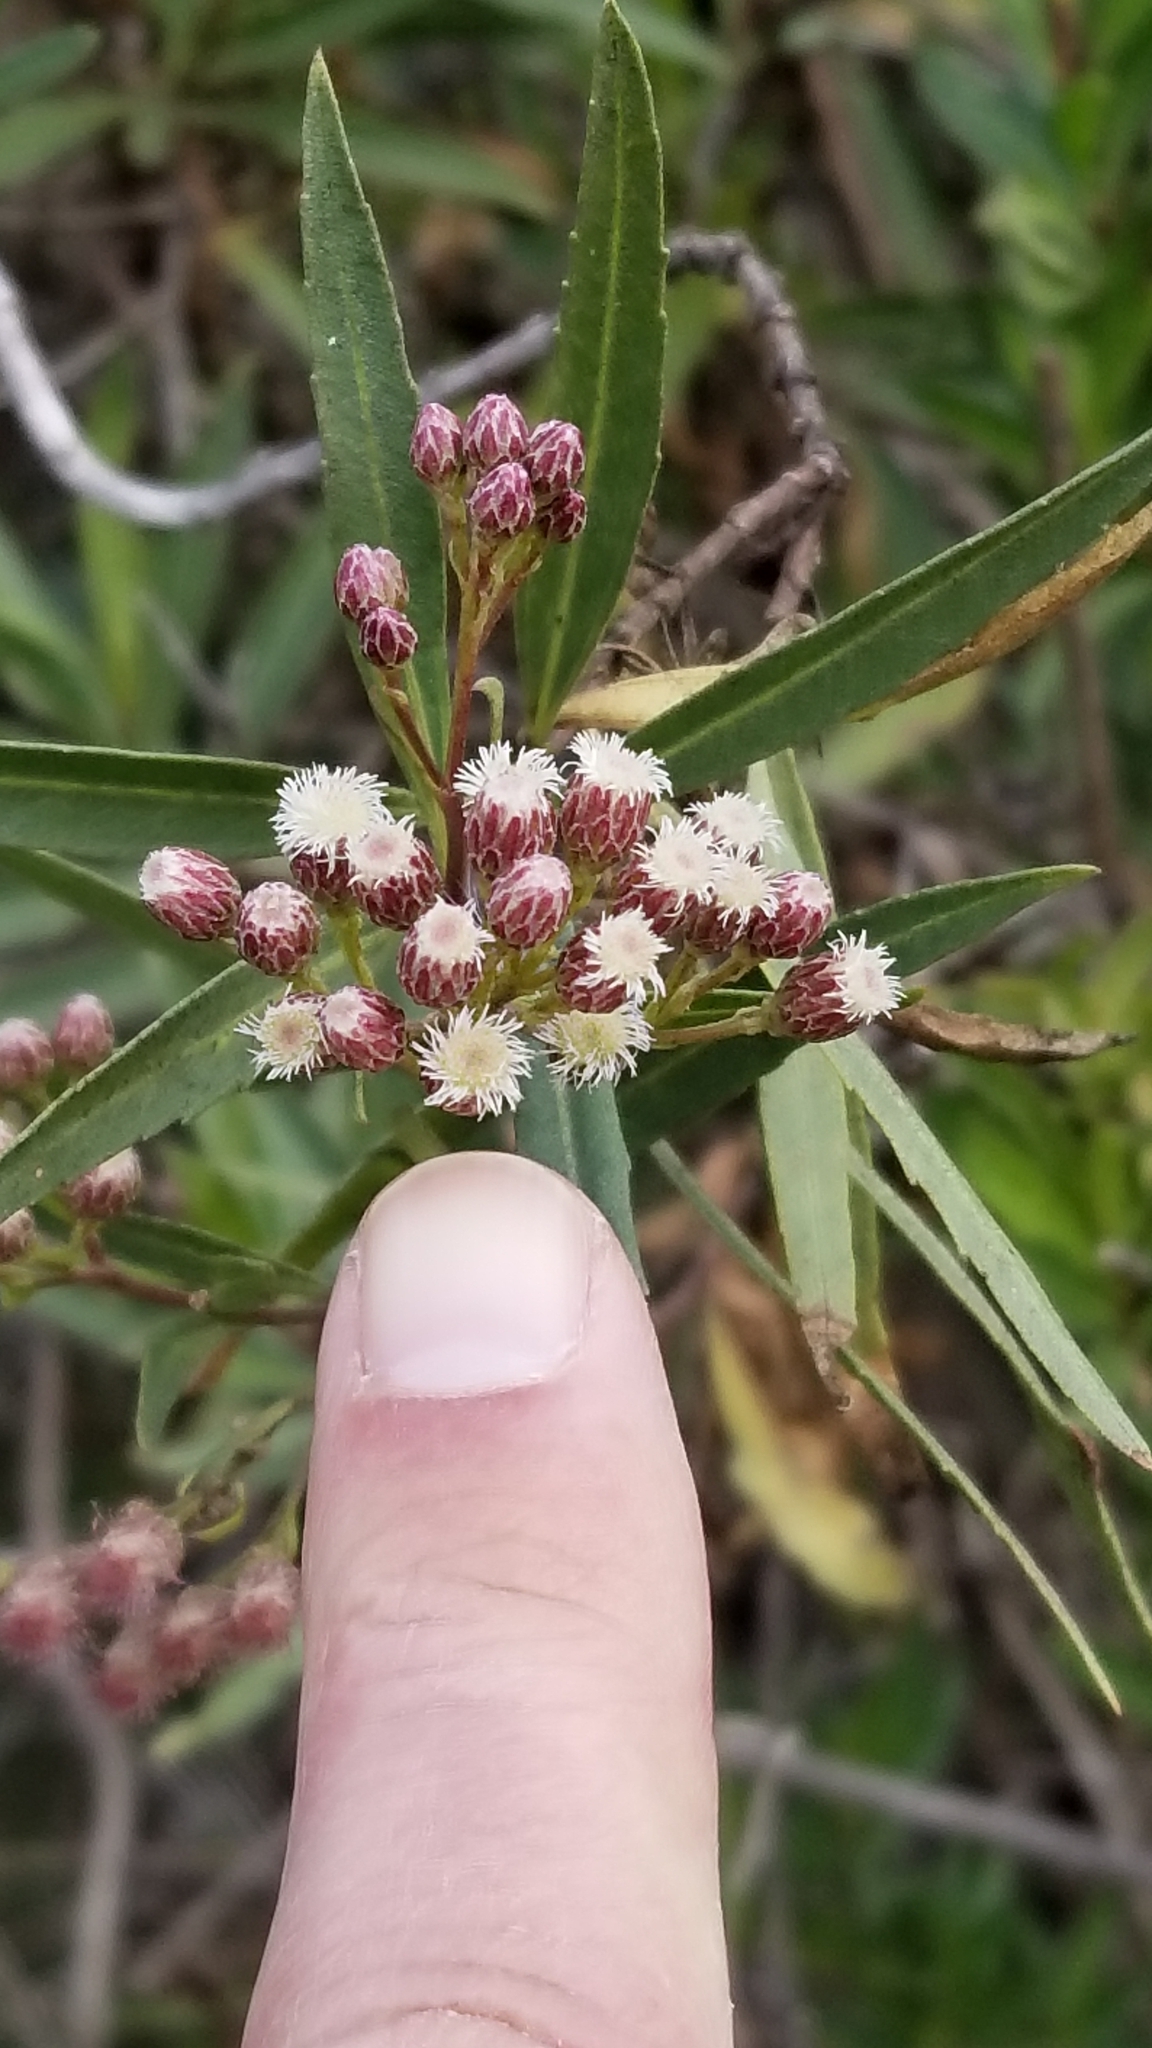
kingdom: Plantae
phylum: Tracheophyta
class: Magnoliopsida
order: Asterales
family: Asteraceae
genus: Baccharis
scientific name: Baccharis salicifolia
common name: Sticky baccharis
